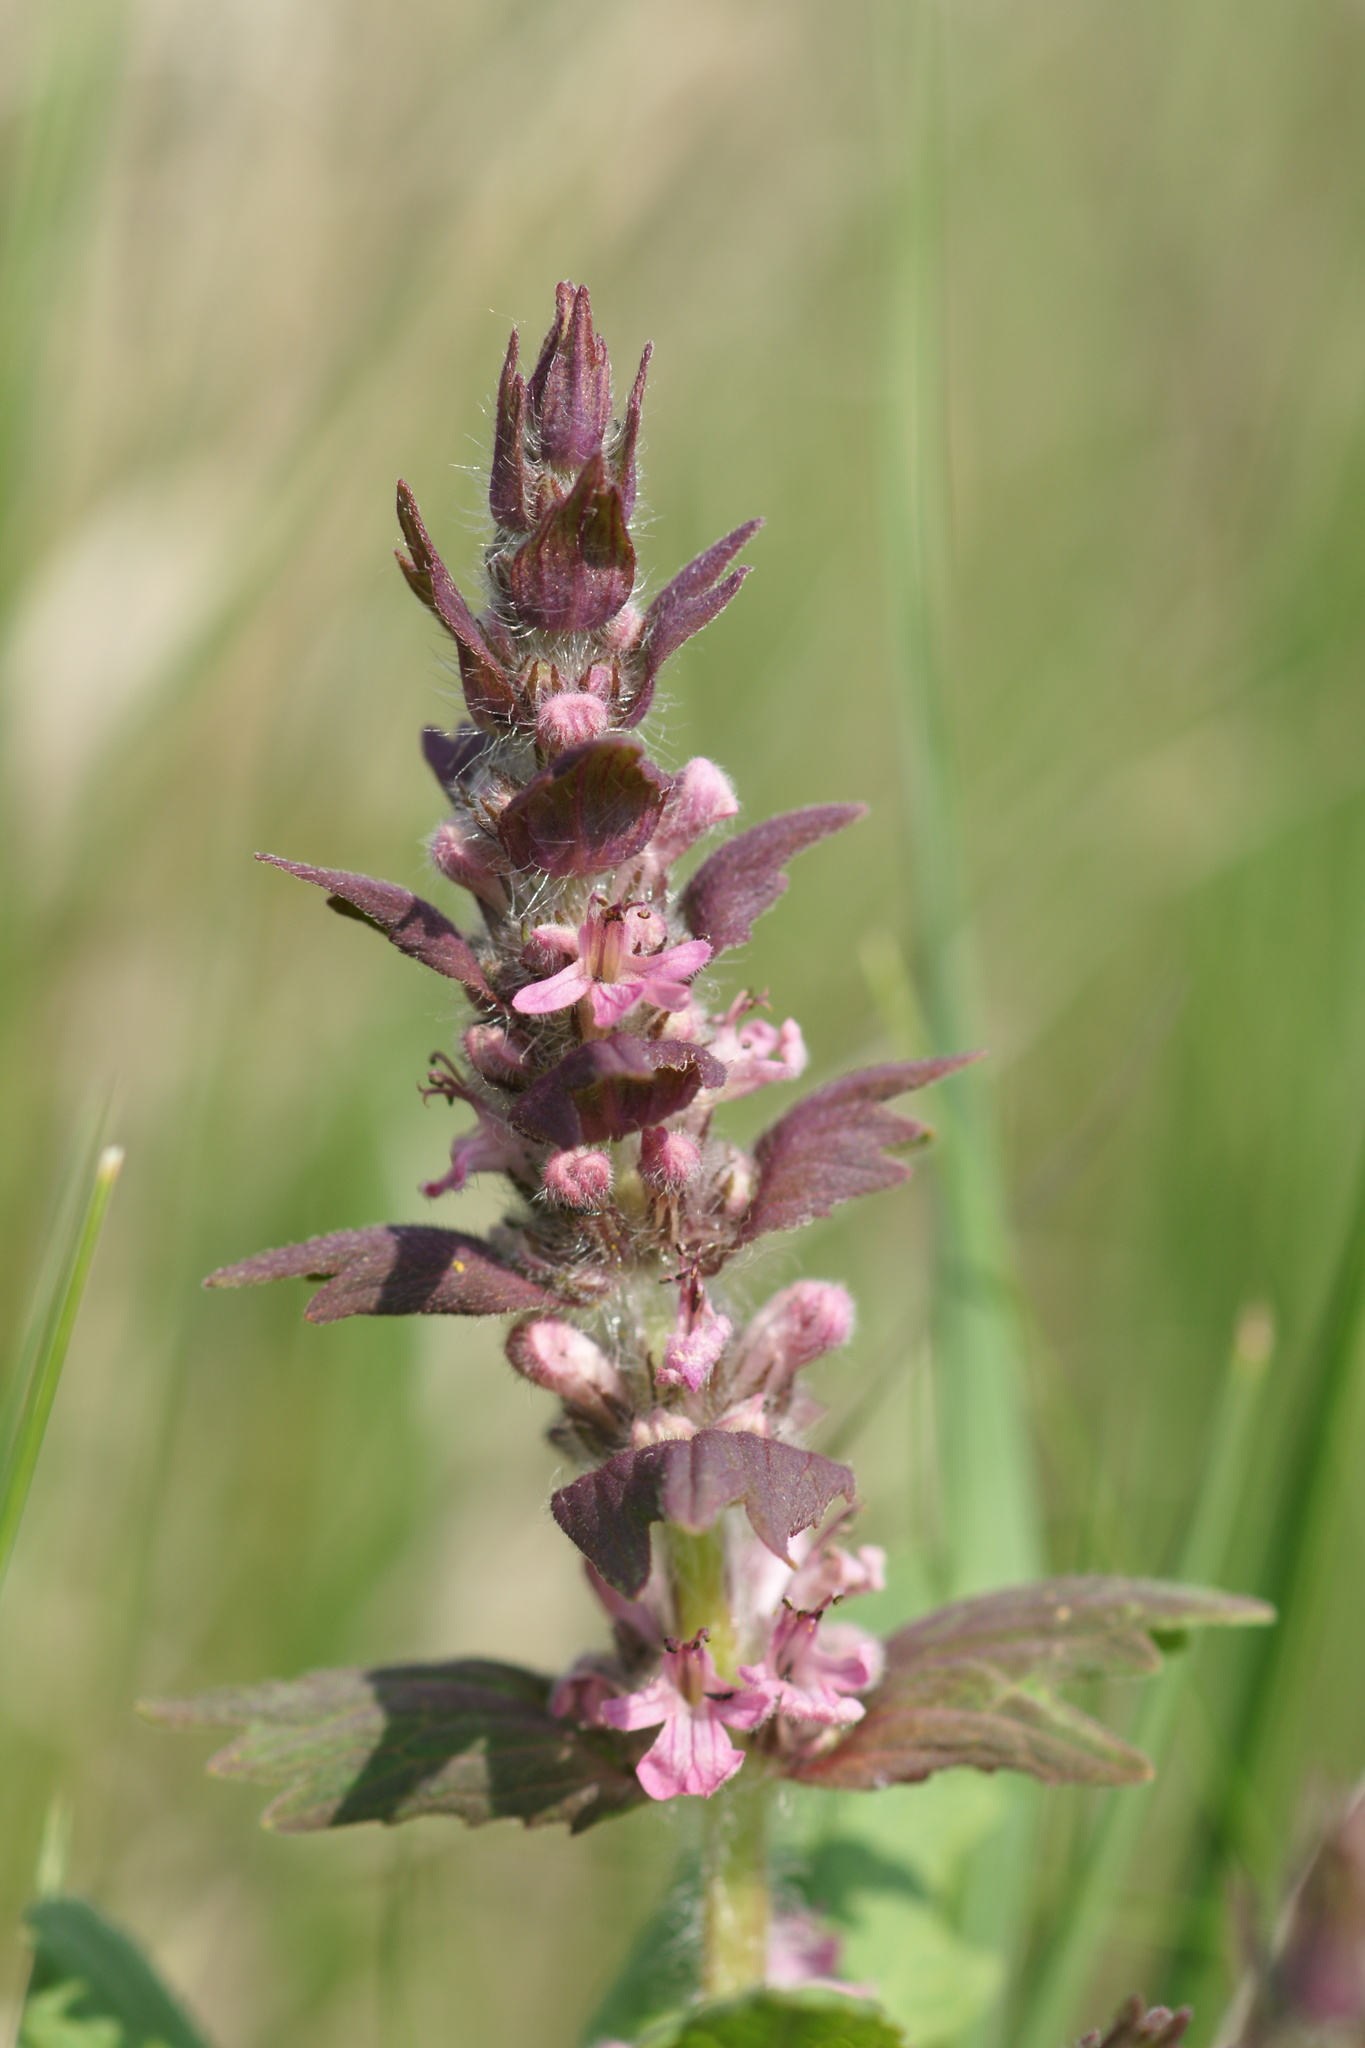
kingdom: Plantae
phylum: Tracheophyta
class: Magnoliopsida
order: Lamiales
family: Lamiaceae
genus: Ajuga
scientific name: Ajuga genevensis
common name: Blue bugle
